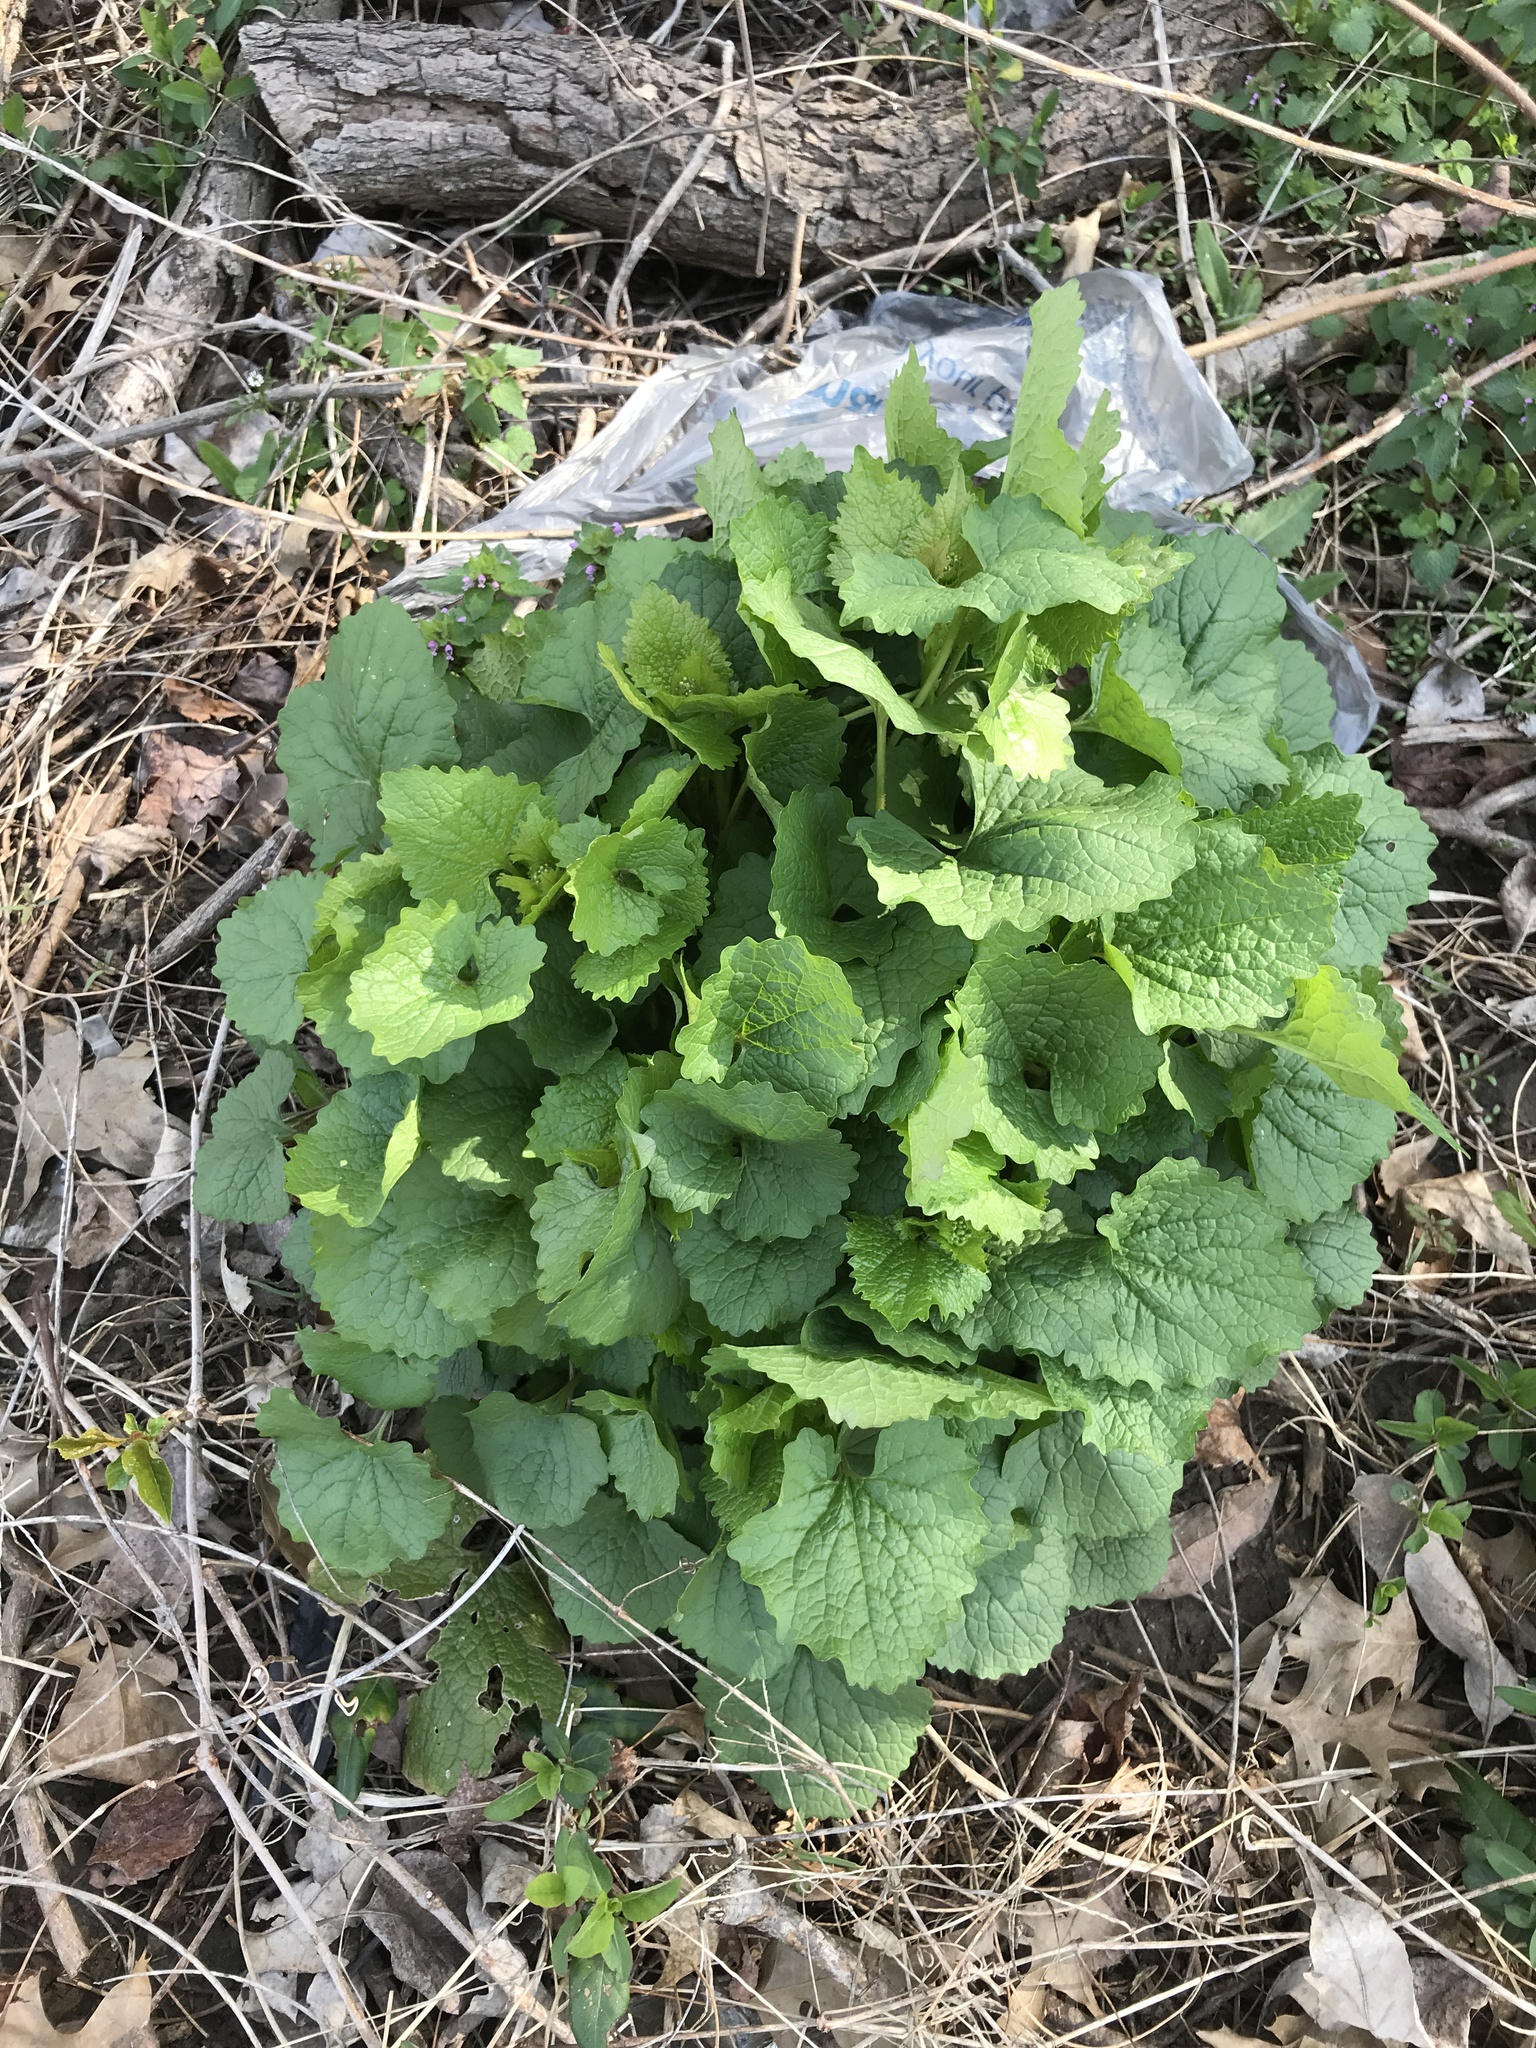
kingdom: Plantae
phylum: Tracheophyta
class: Magnoliopsida
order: Brassicales
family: Brassicaceae
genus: Alliaria
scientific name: Alliaria petiolata
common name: Garlic mustard
